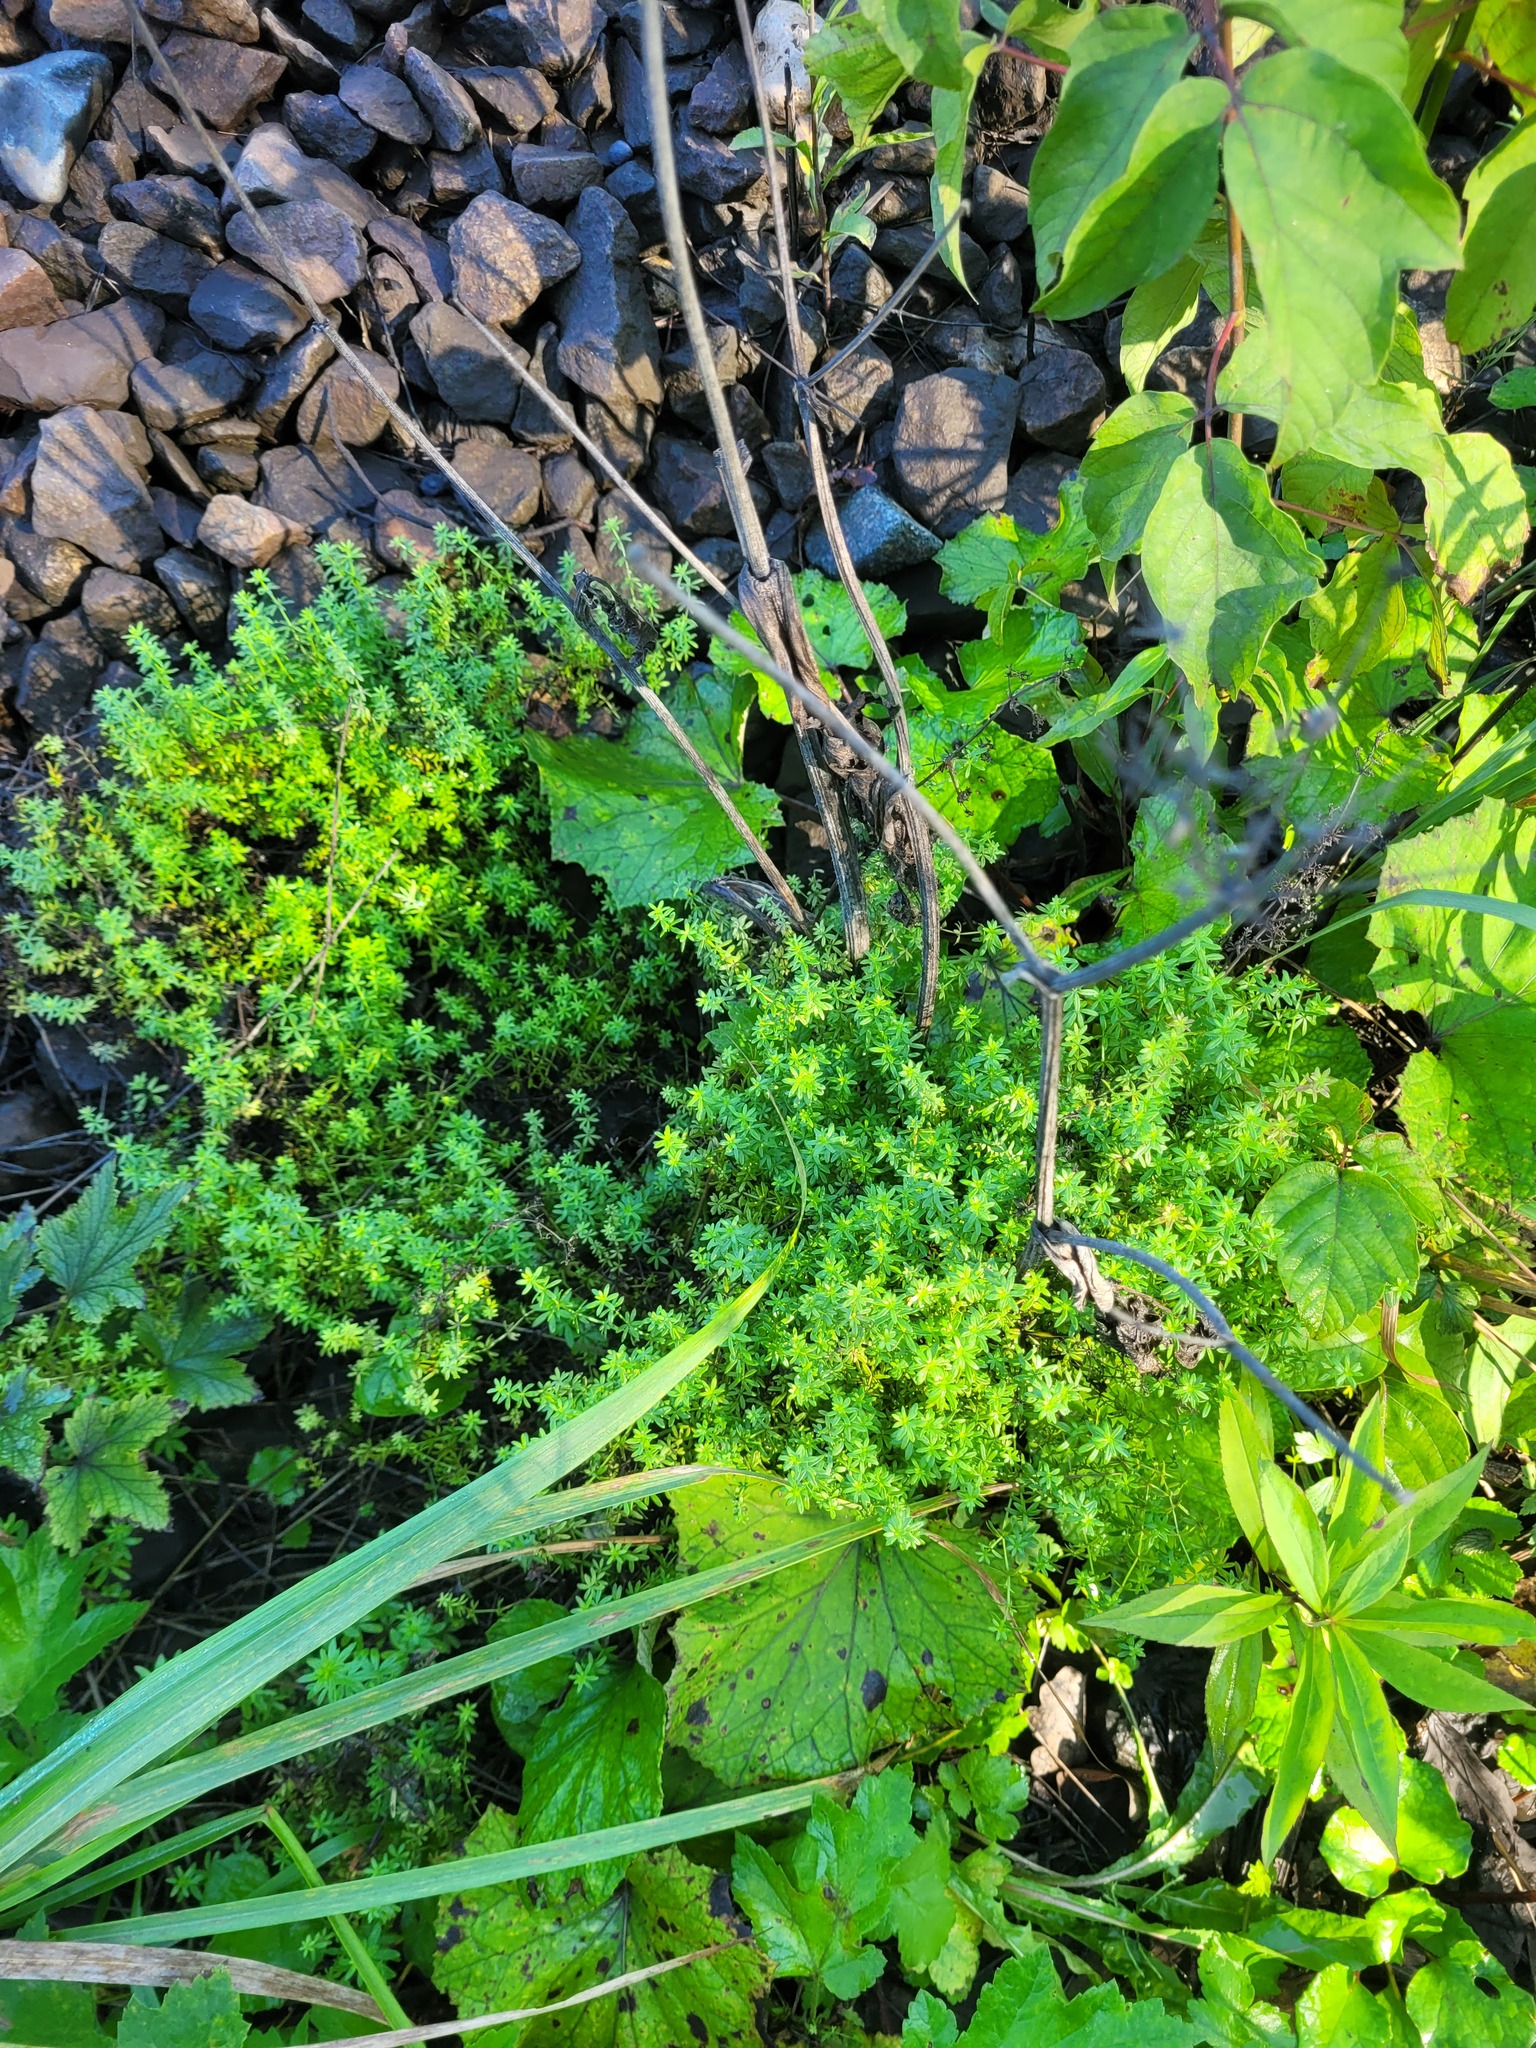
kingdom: Plantae
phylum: Tracheophyta
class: Magnoliopsida
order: Gentianales
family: Rubiaceae
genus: Galium
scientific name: Galium mollugo
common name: Hedge bedstraw
